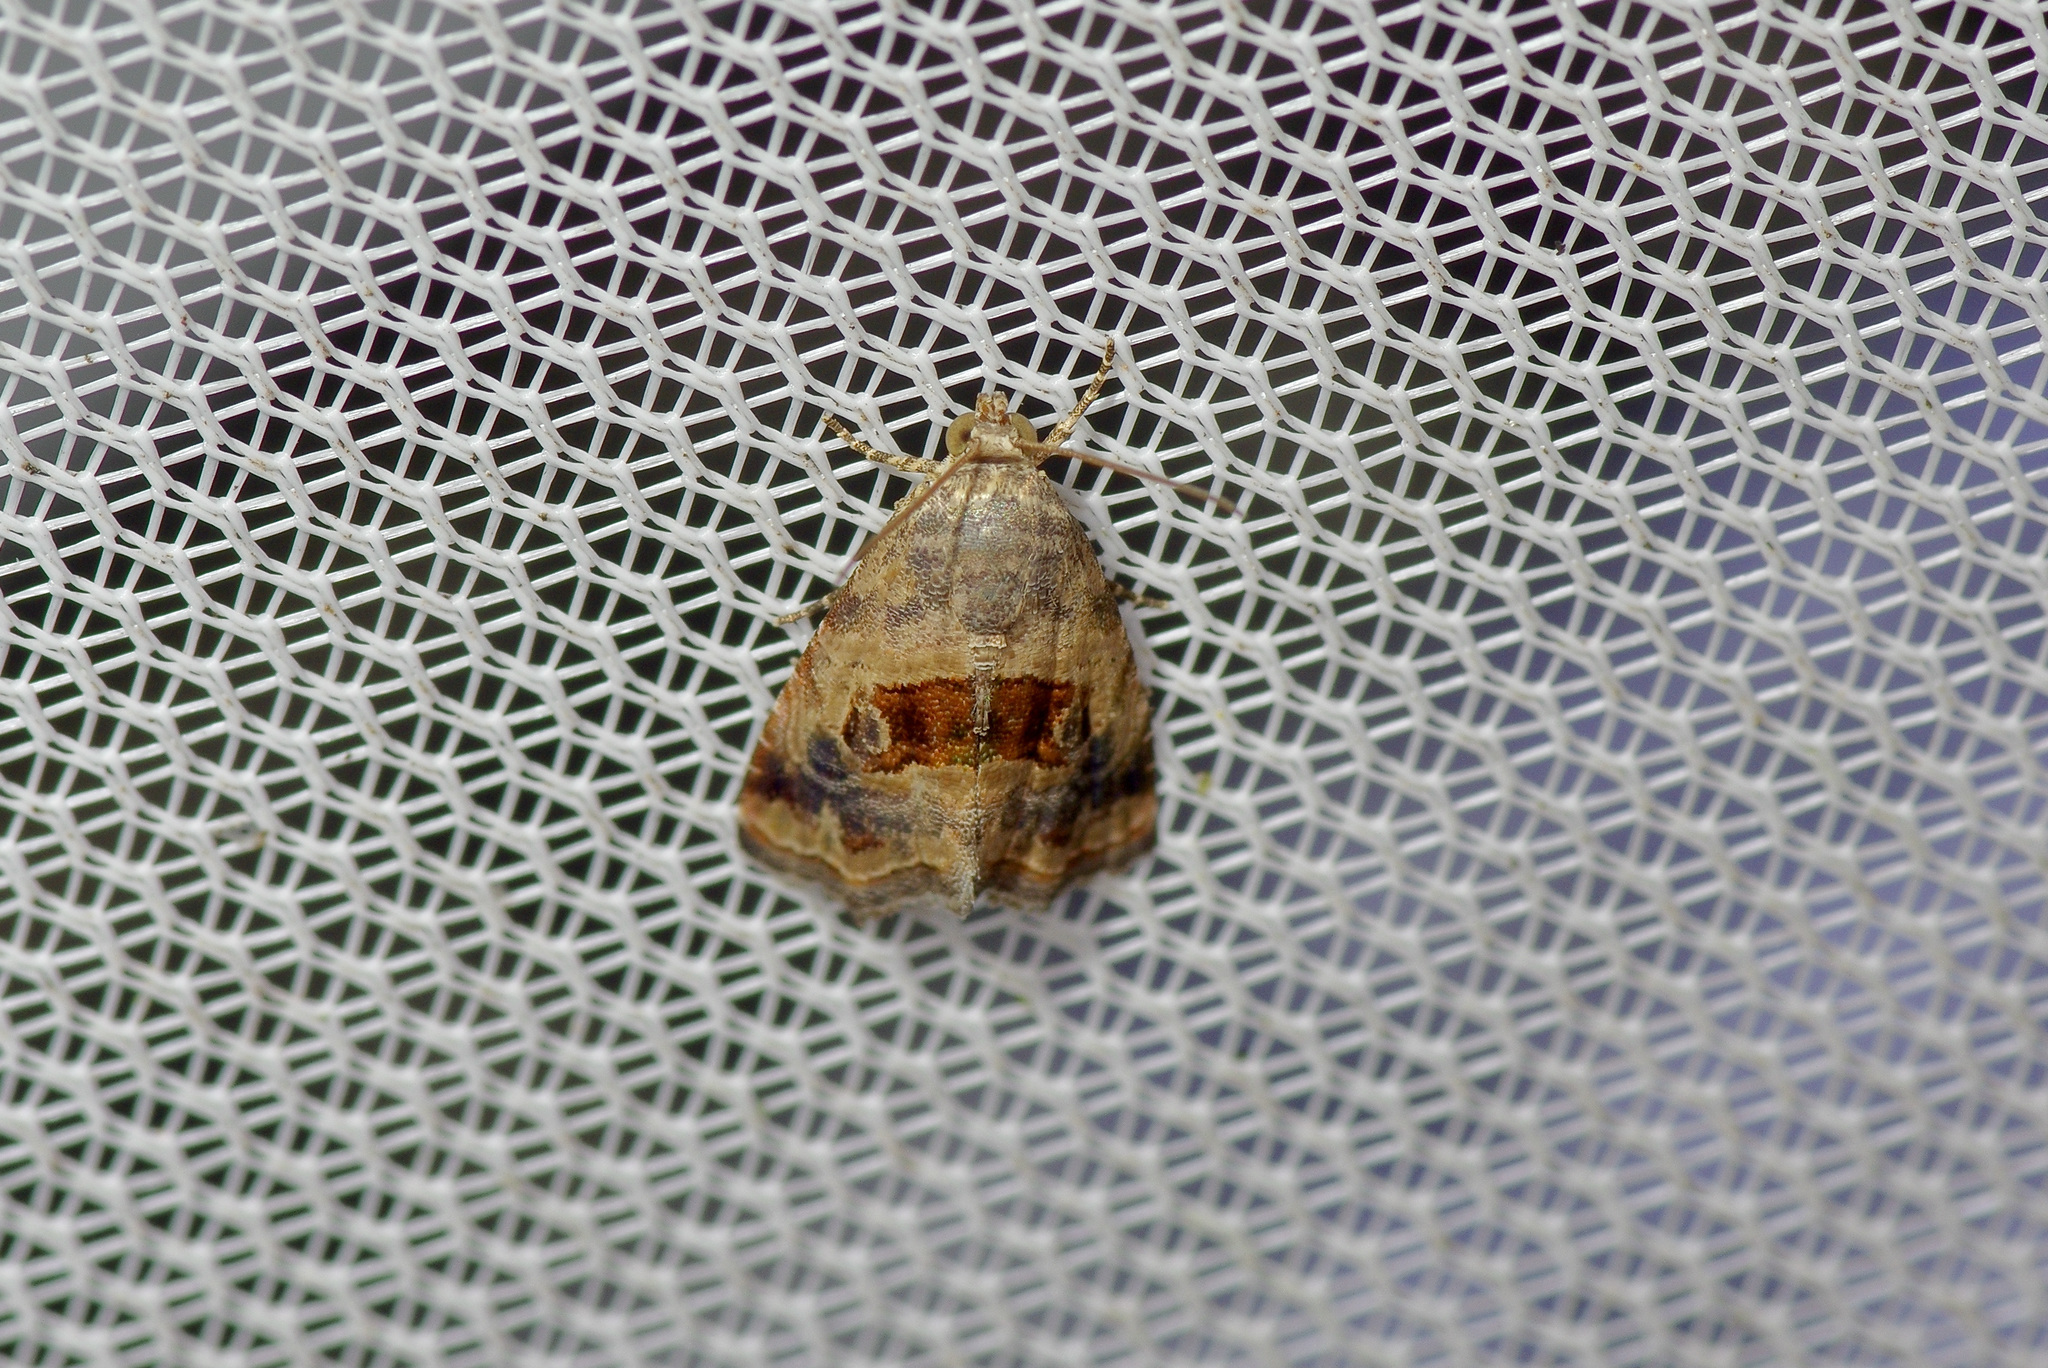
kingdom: Animalia
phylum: Arthropoda
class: Insecta
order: Lepidoptera
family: Noctuidae
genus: Tripudia
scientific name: Tripudia quadrifera
